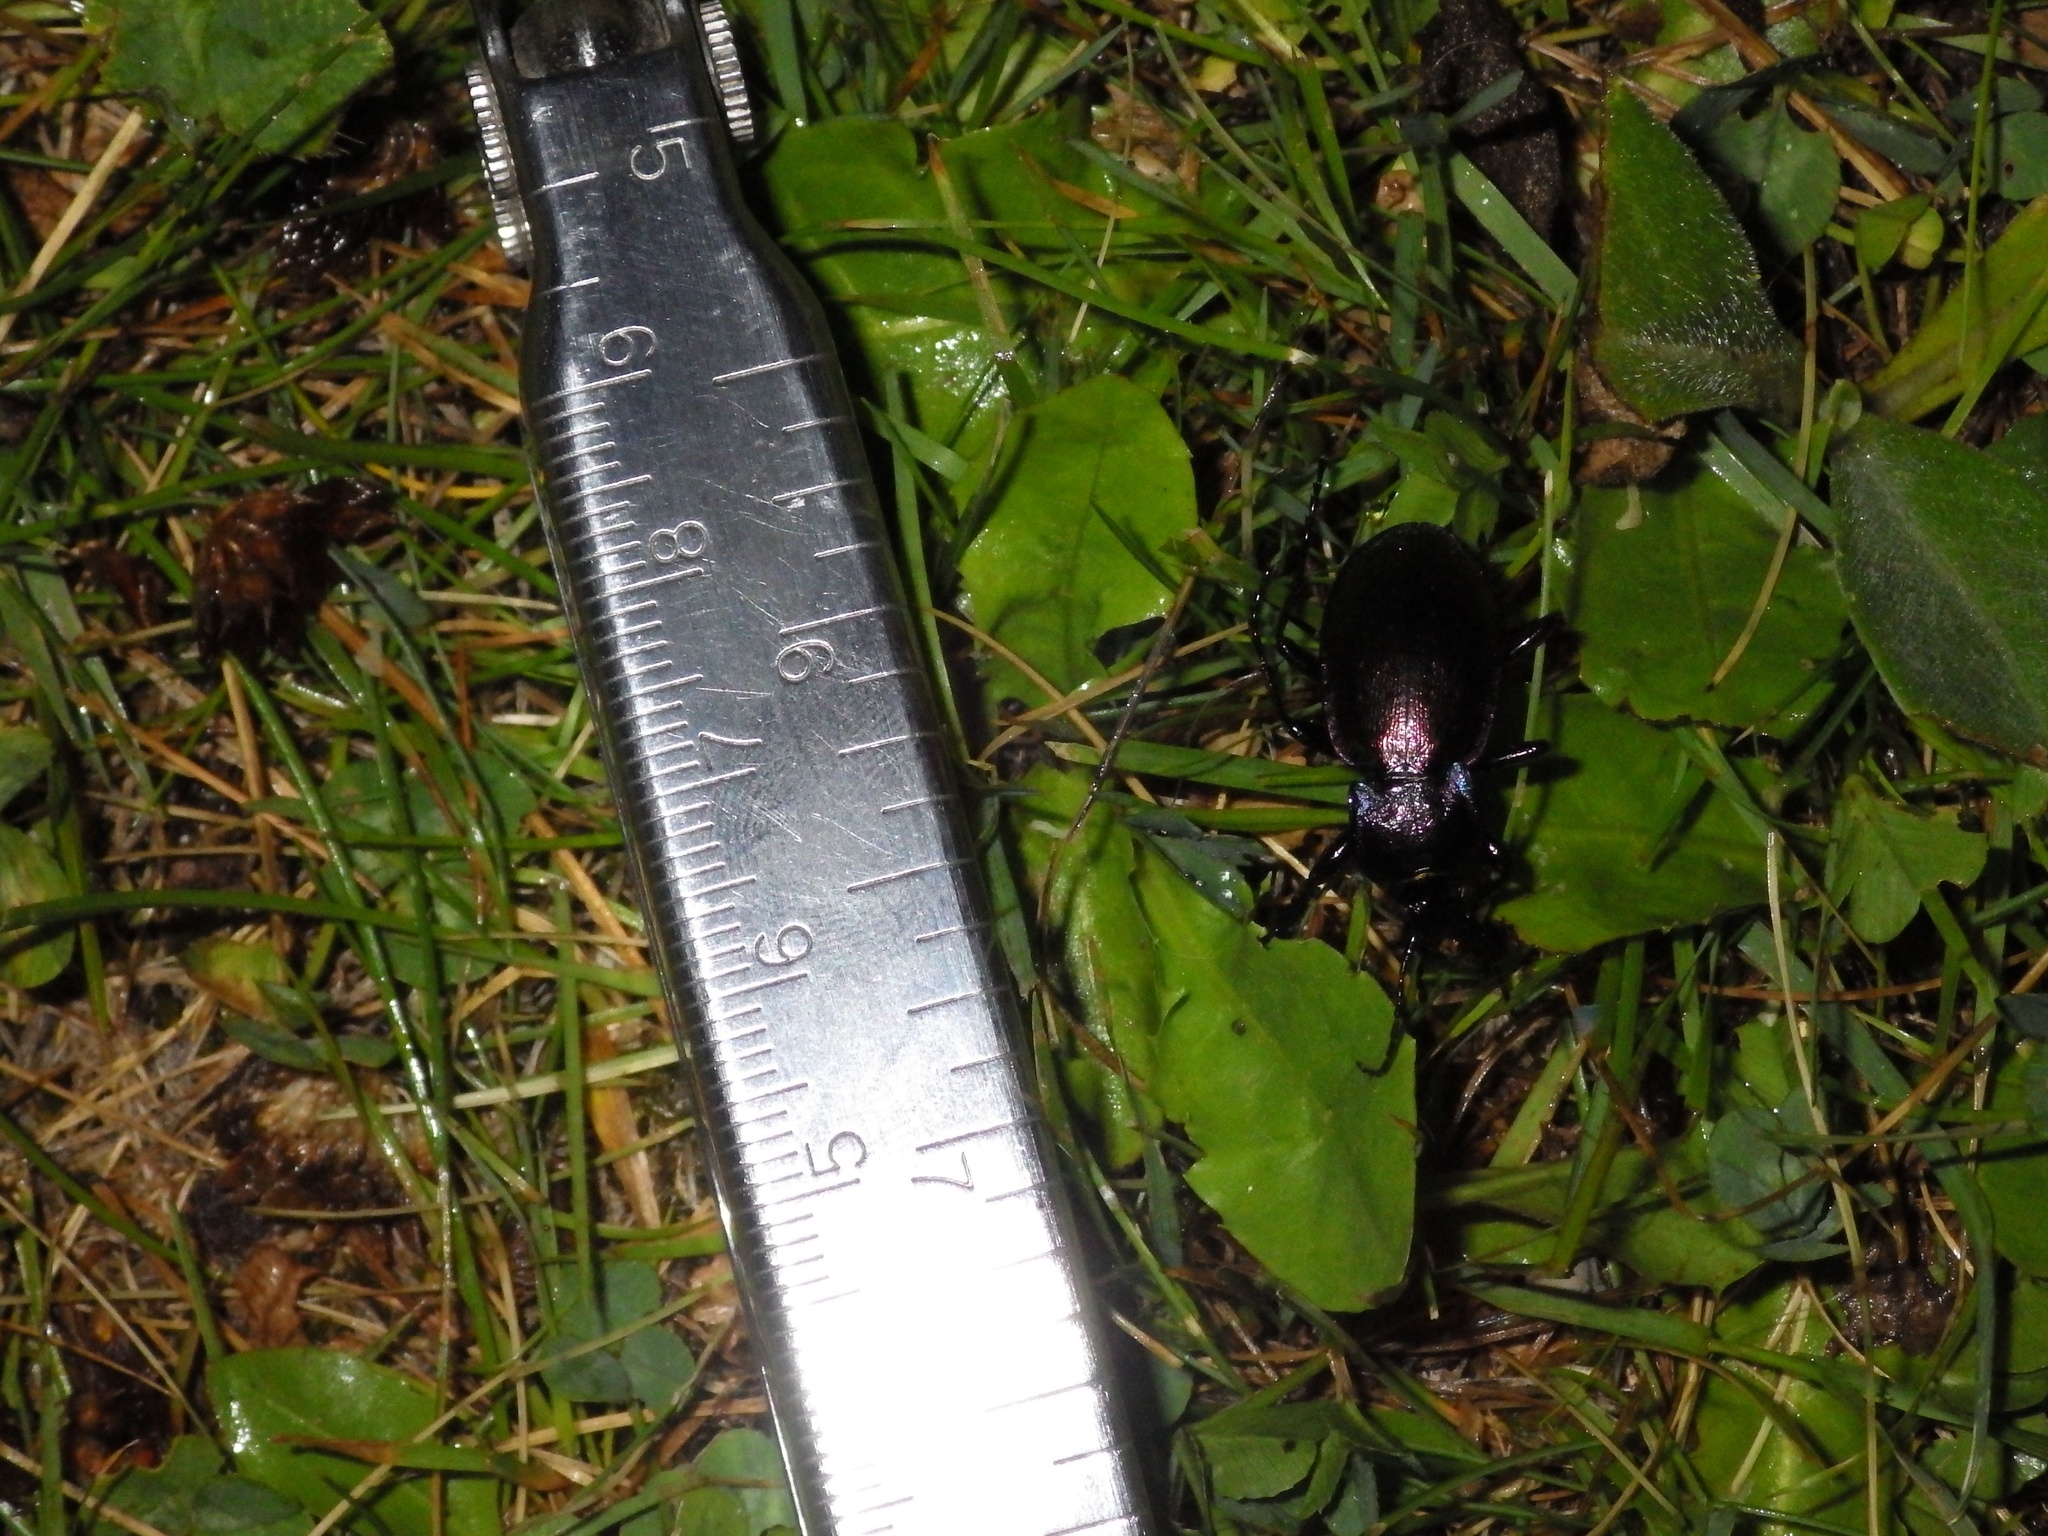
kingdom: Animalia
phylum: Arthropoda
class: Insecta
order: Coleoptera
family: Carabidae
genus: Carabus
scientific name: Carabus nemoralis
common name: European ground beetle
